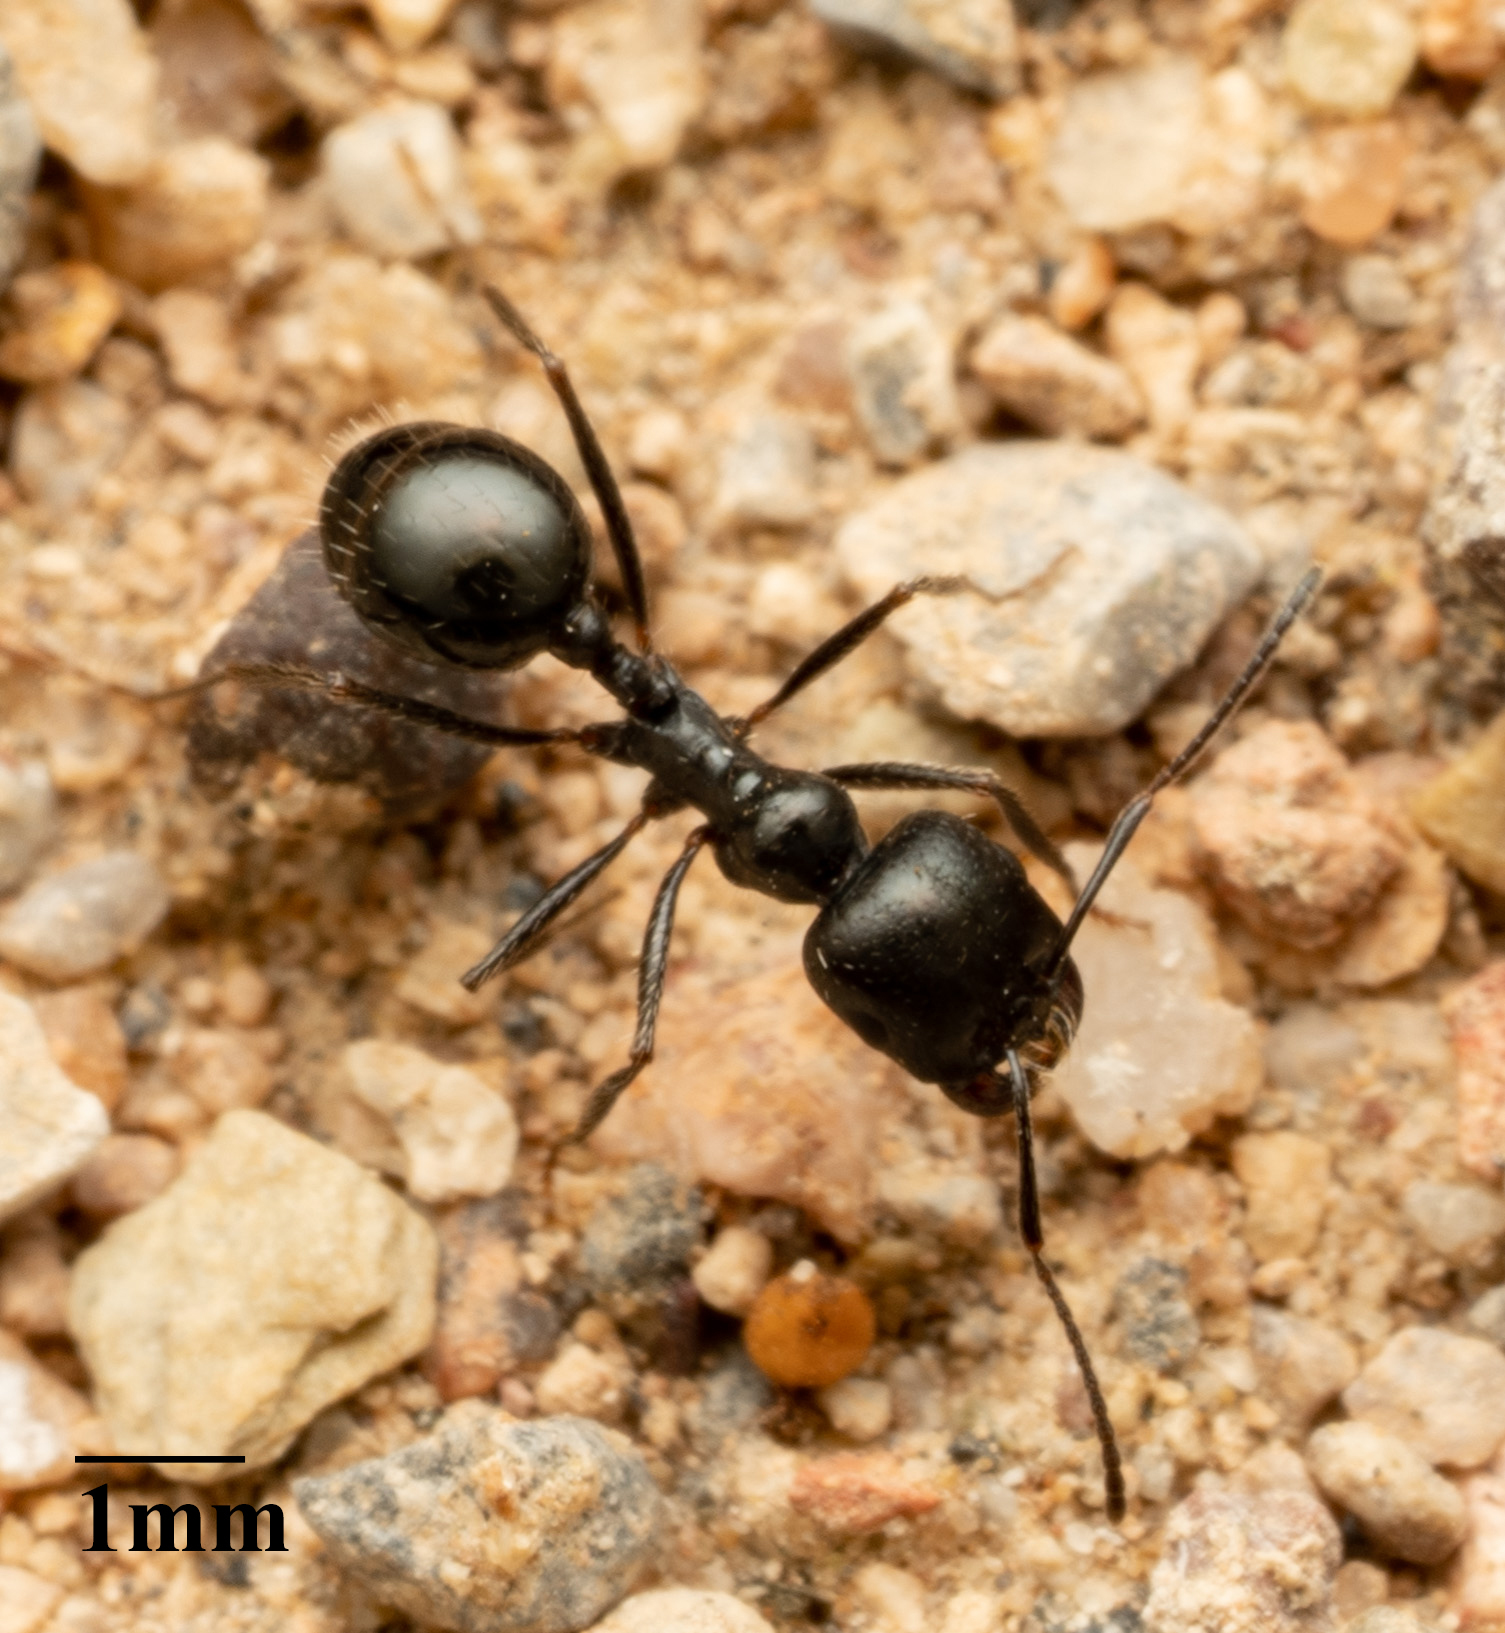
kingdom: Animalia
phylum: Arthropoda
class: Insecta
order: Hymenoptera
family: Formicidae
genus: Messor
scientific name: Messor pergandei
